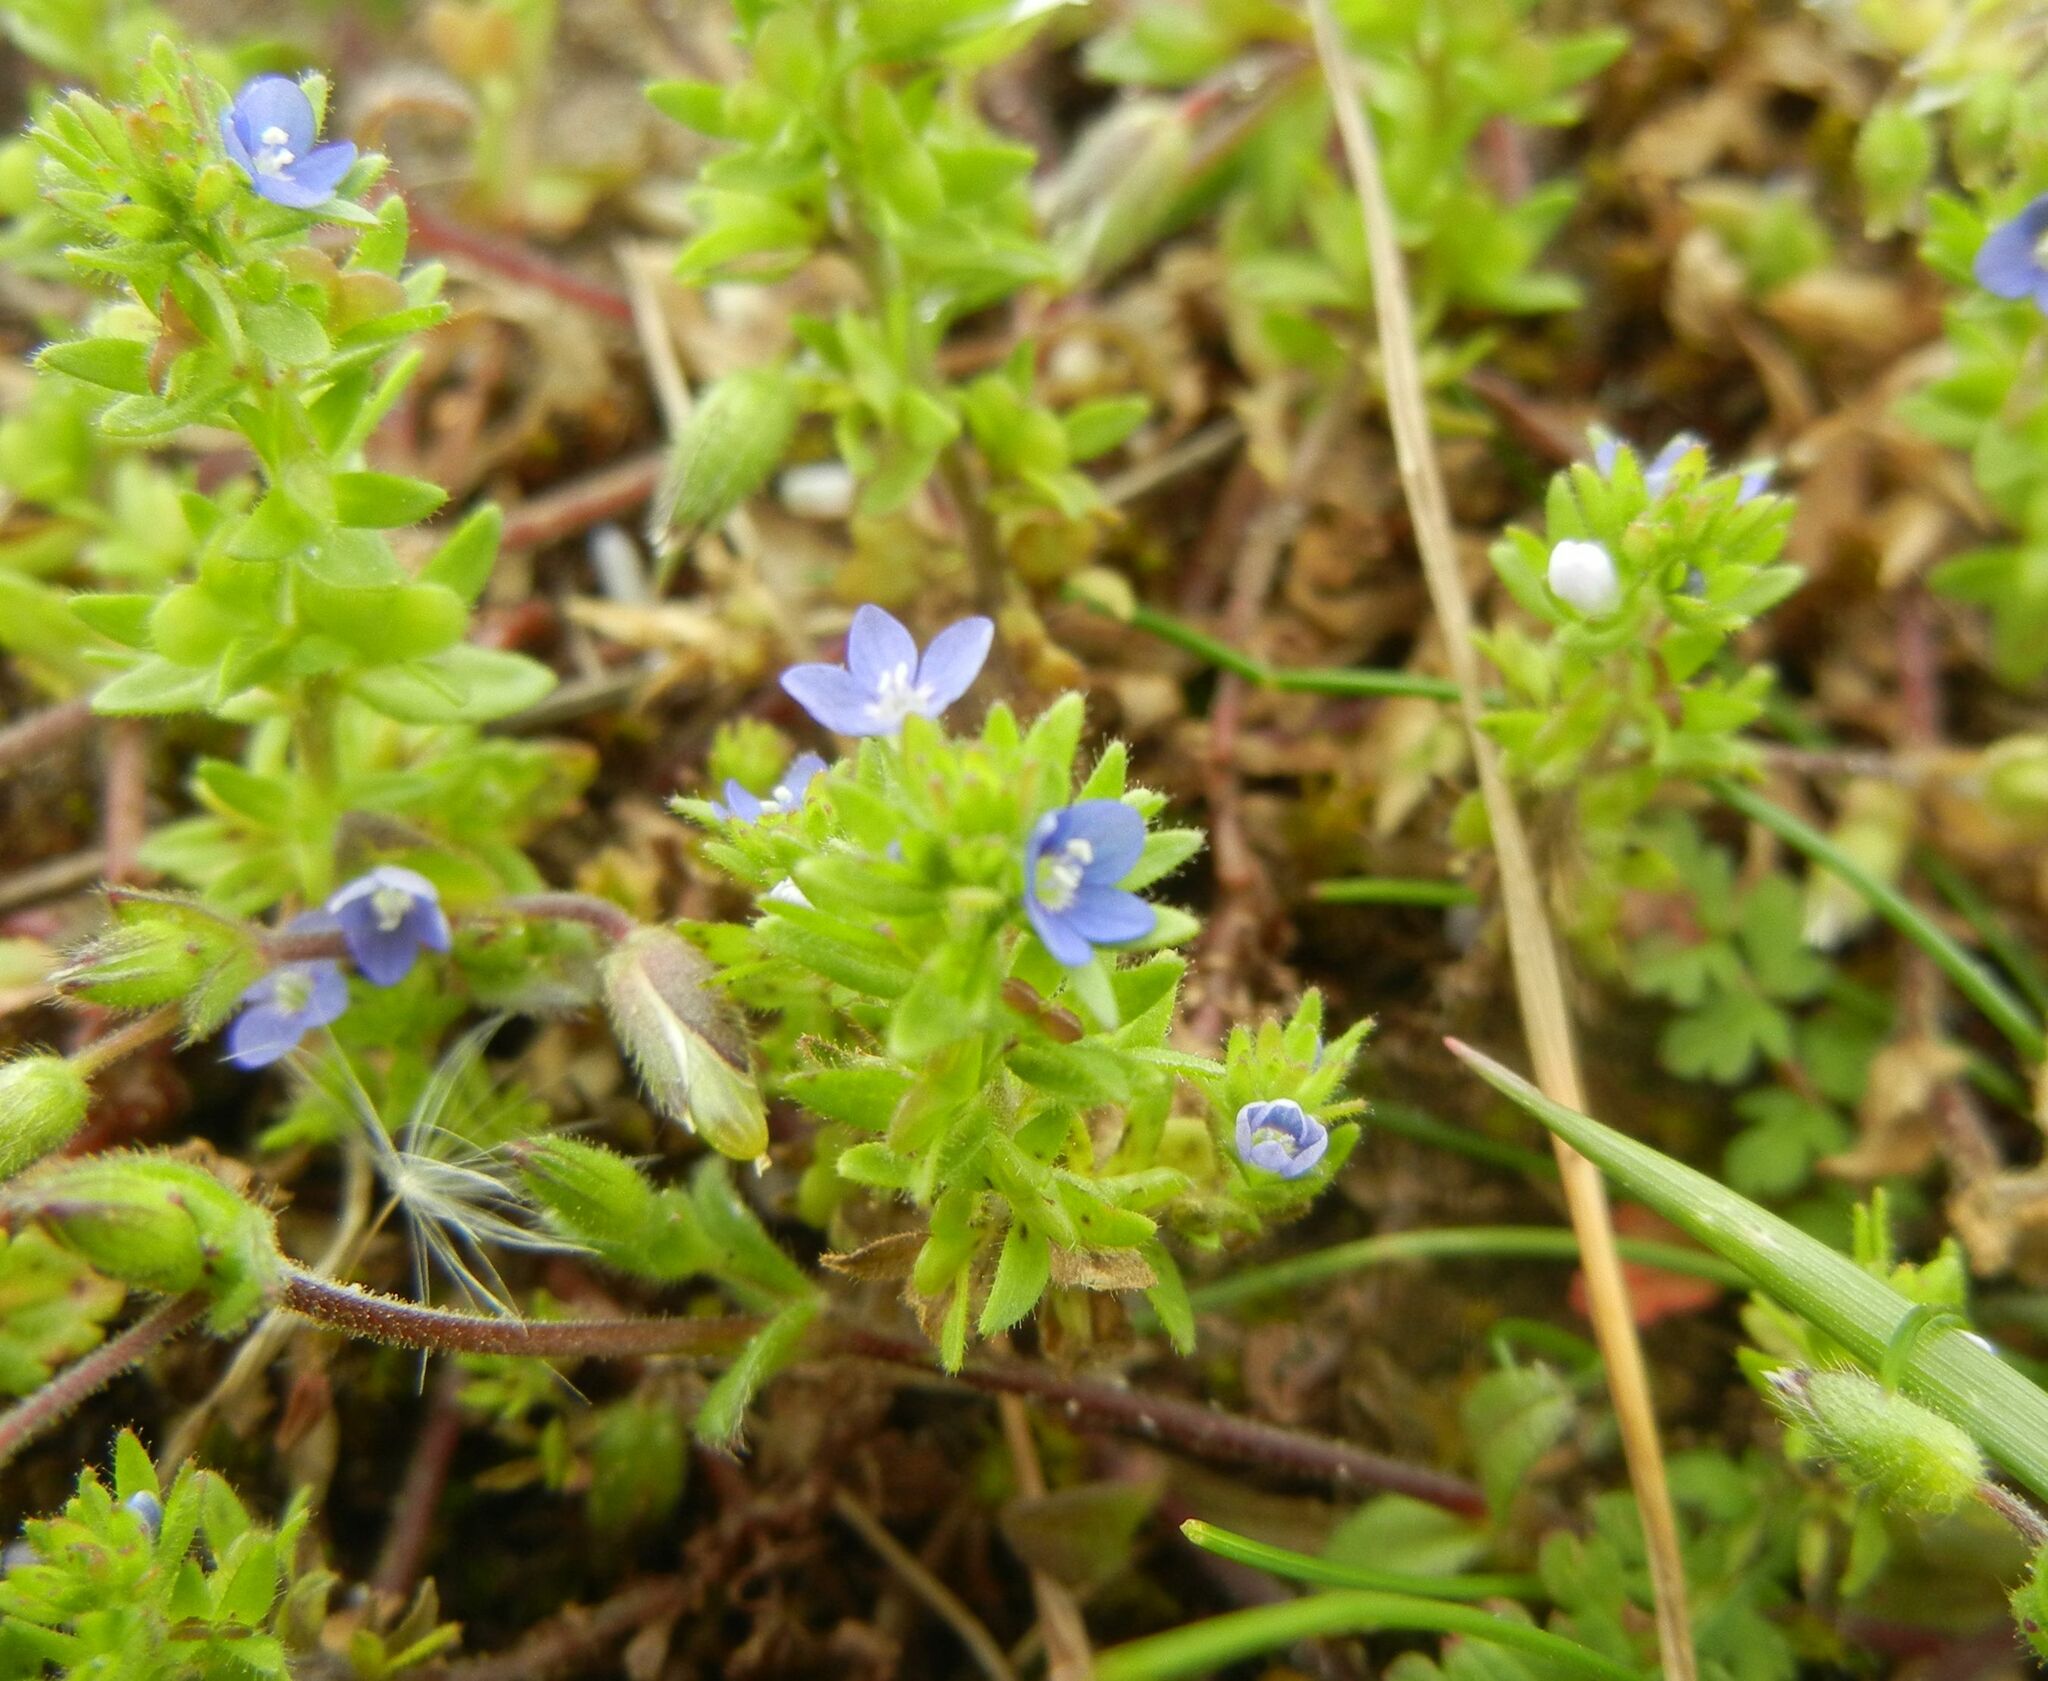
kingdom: Plantae
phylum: Tracheophyta
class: Magnoliopsida
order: Lamiales
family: Plantaginaceae
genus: Veronica
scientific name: Veronica arvensis
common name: Corn speedwell
